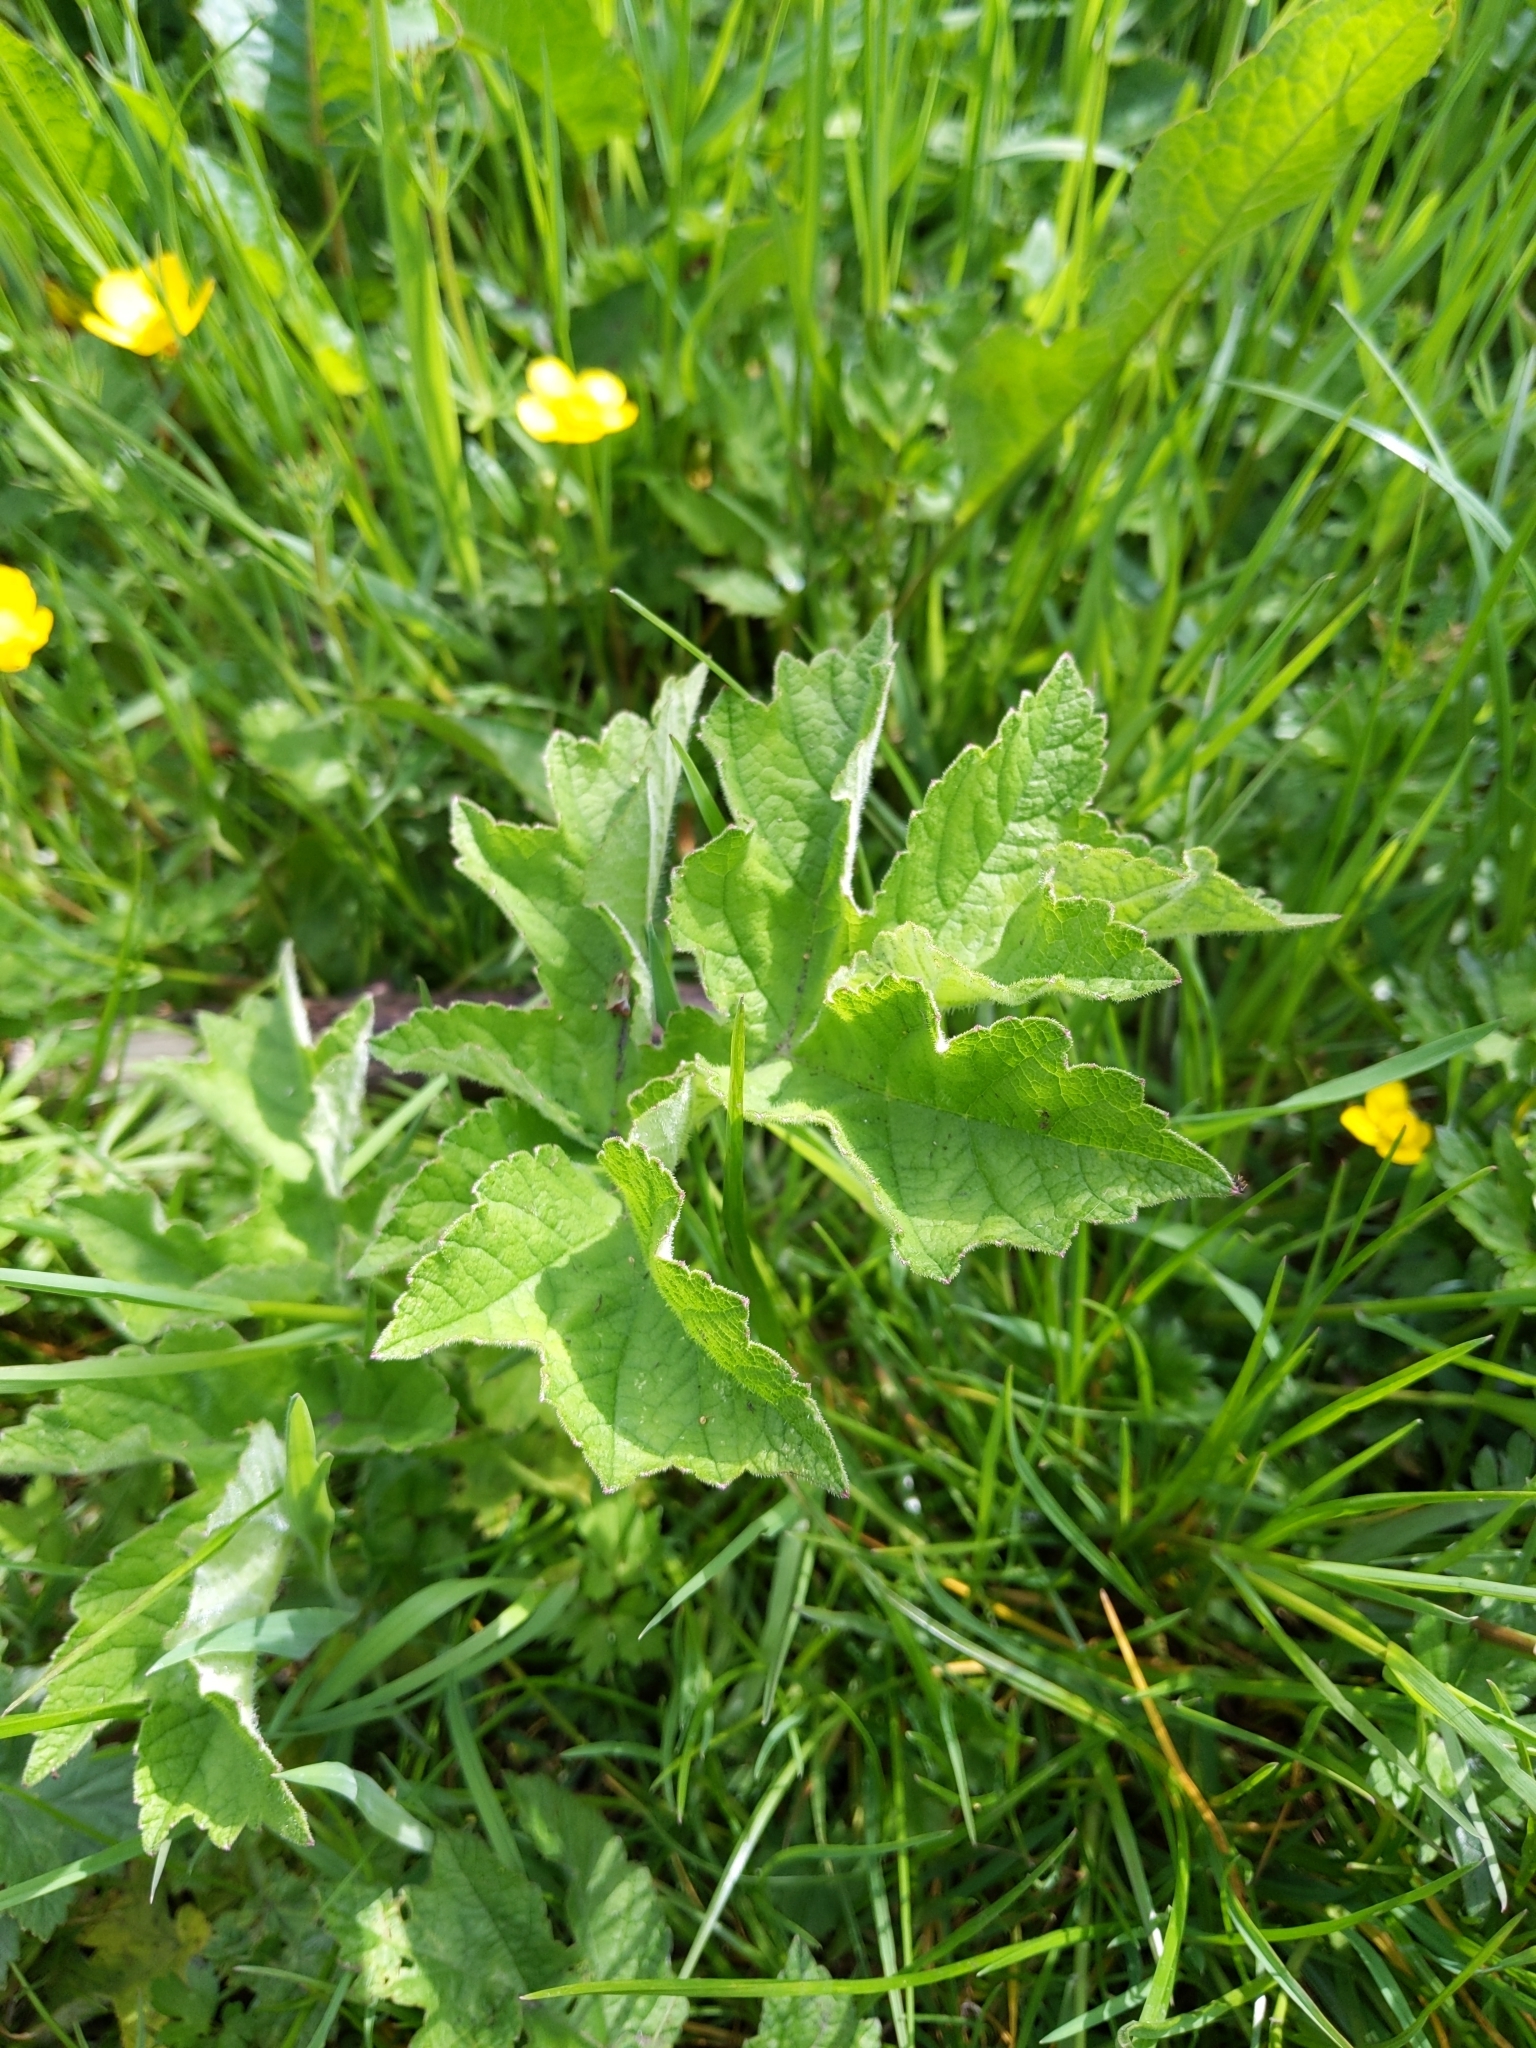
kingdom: Plantae
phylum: Tracheophyta
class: Magnoliopsida
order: Apiales
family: Apiaceae
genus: Heracleum
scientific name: Heracleum sphondylium
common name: Hogweed
